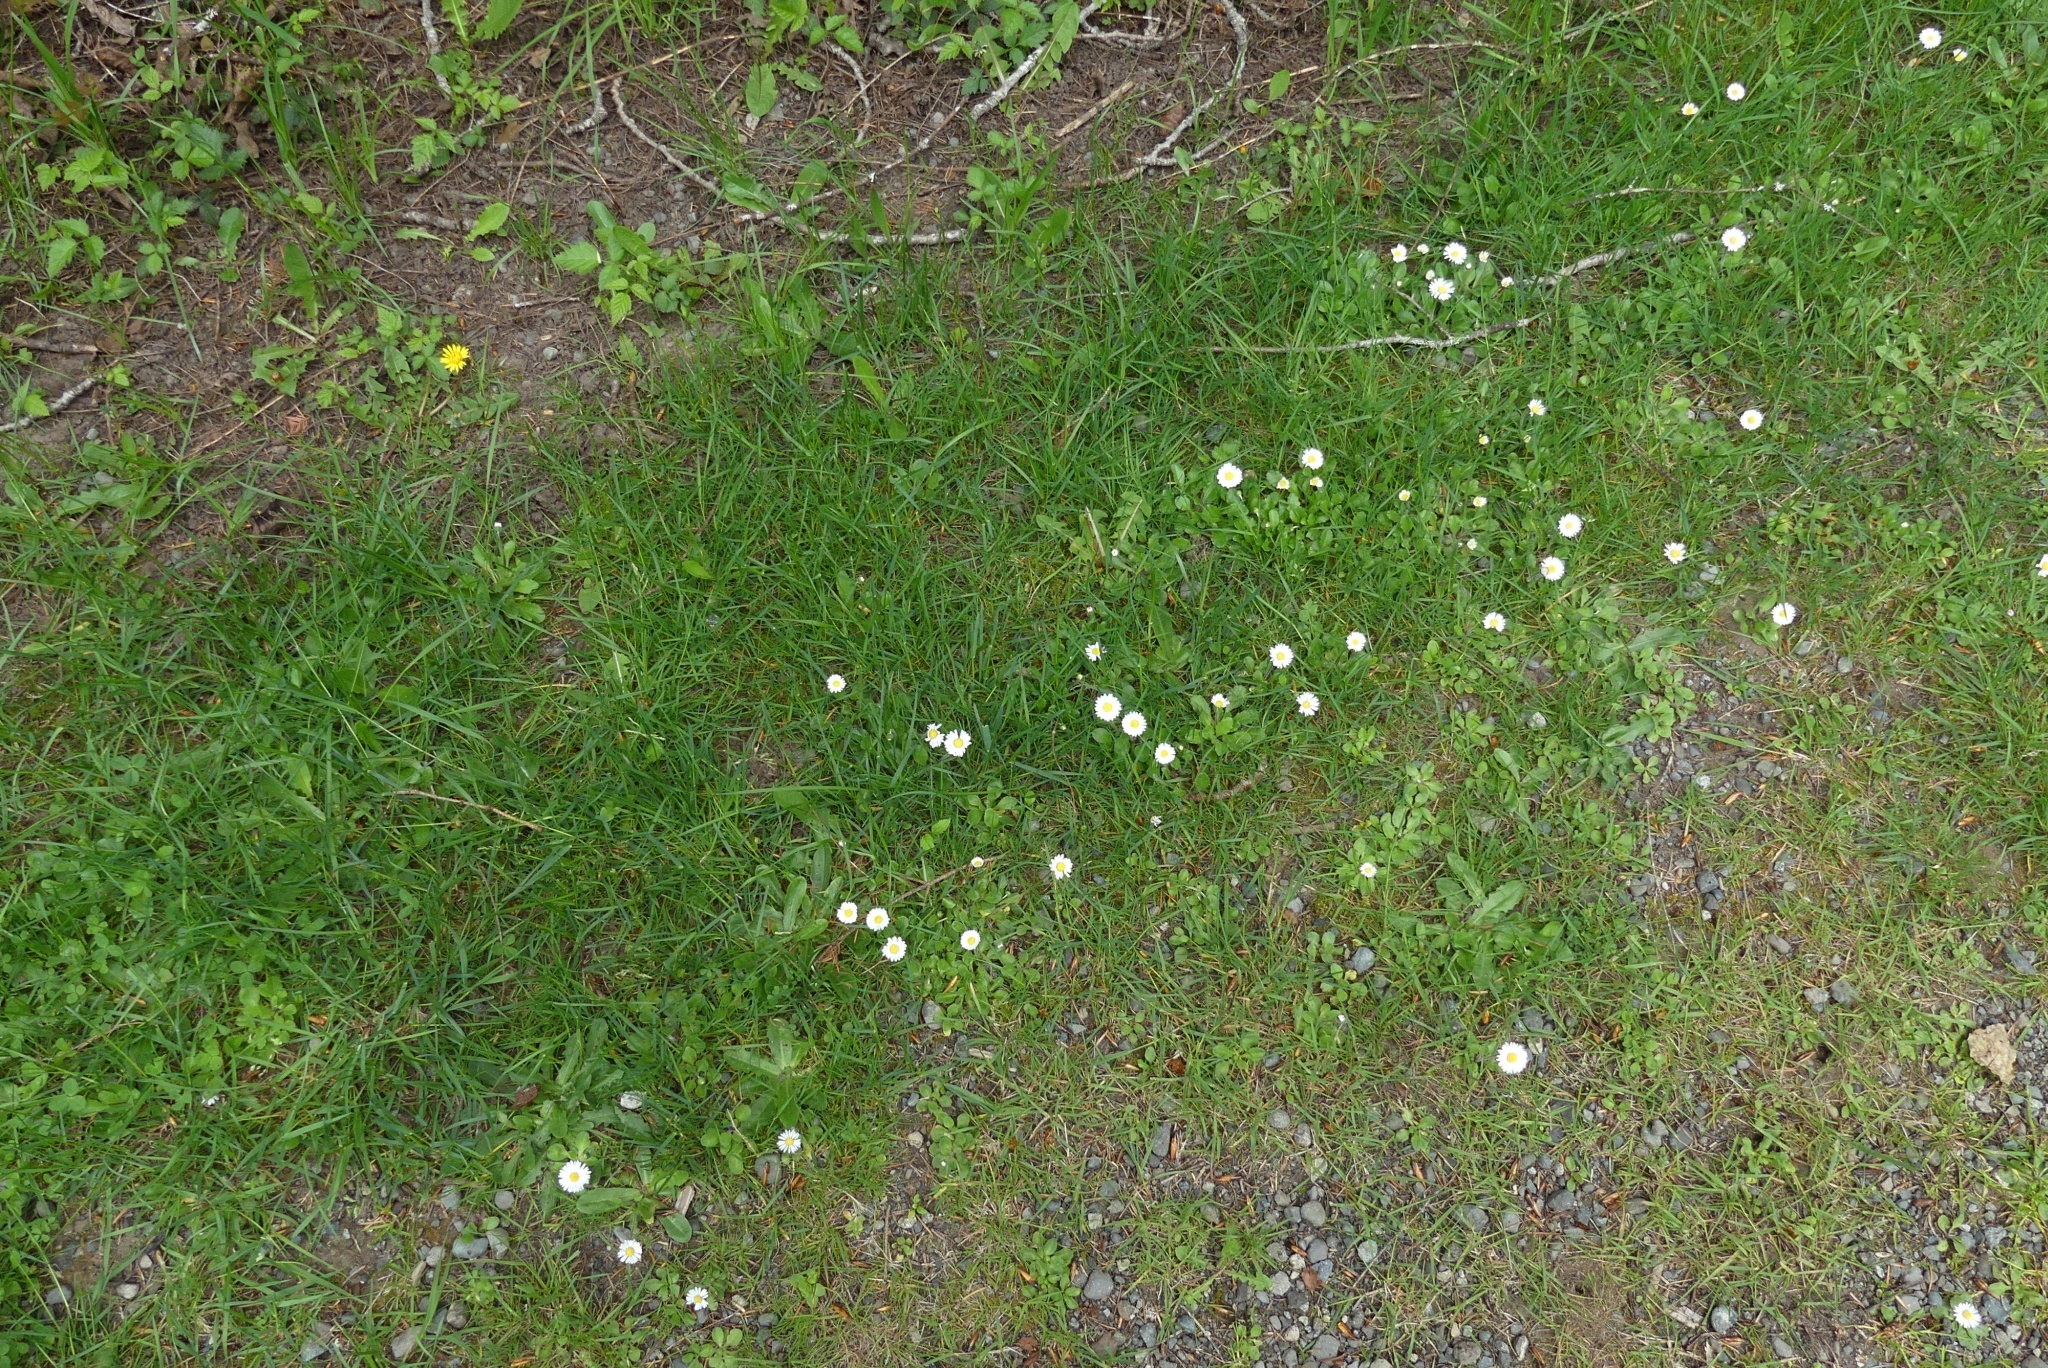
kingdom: Plantae
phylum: Tracheophyta
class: Magnoliopsida
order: Asterales
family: Asteraceae
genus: Bellis
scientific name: Bellis perennis
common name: Lawndaisy
